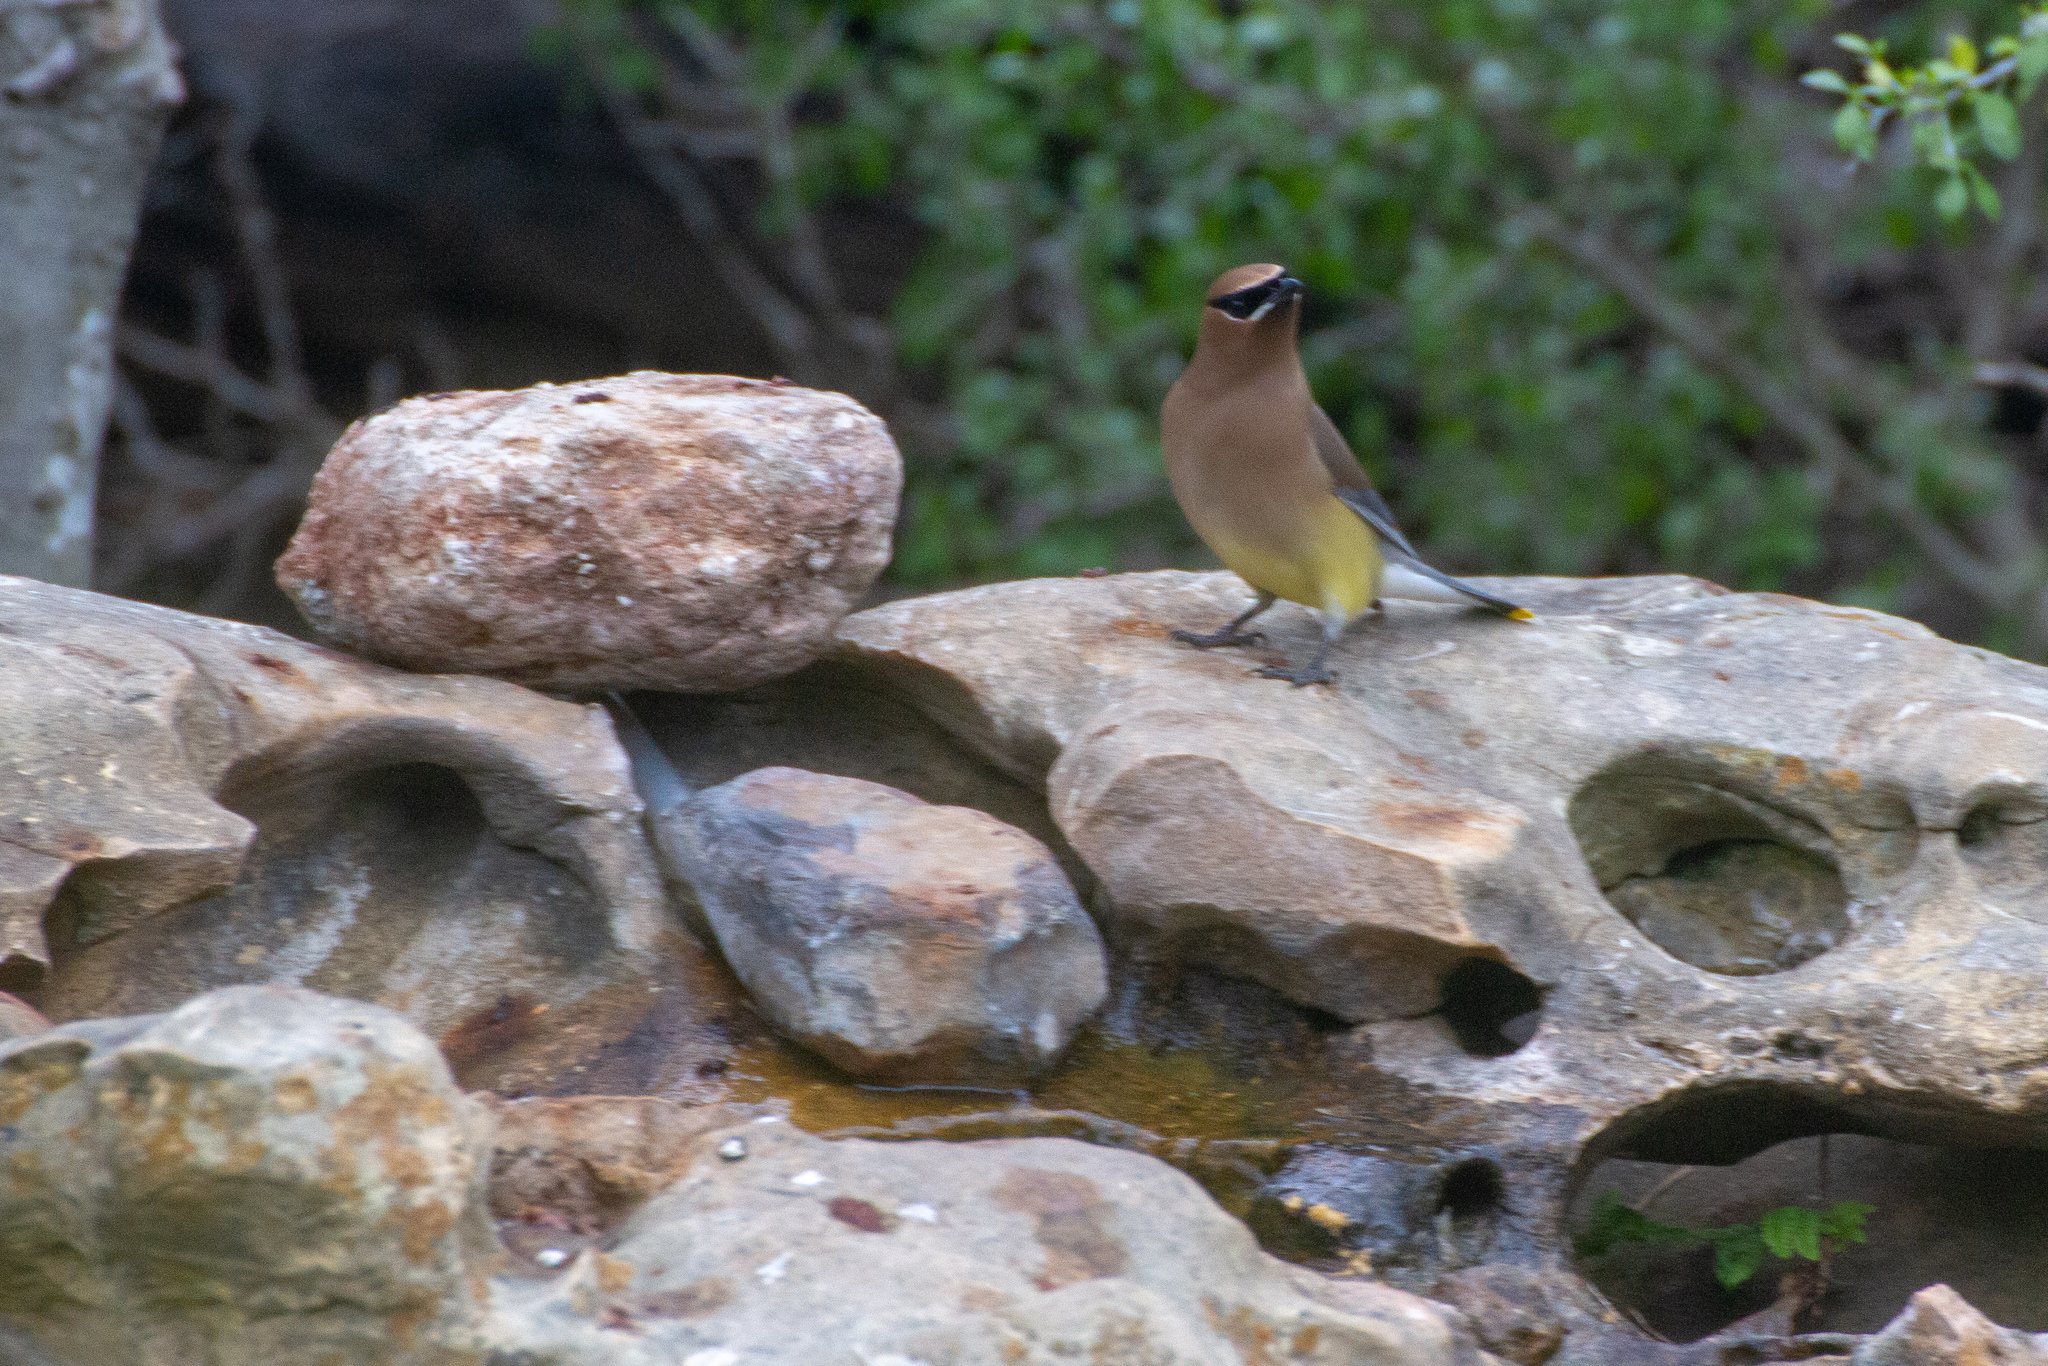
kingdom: Animalia
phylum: Chordata
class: Aves
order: Passeriformes
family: Bombycillidae
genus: Bombycilla
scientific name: Bombycilla cedrorum
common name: Cedar waxwing
